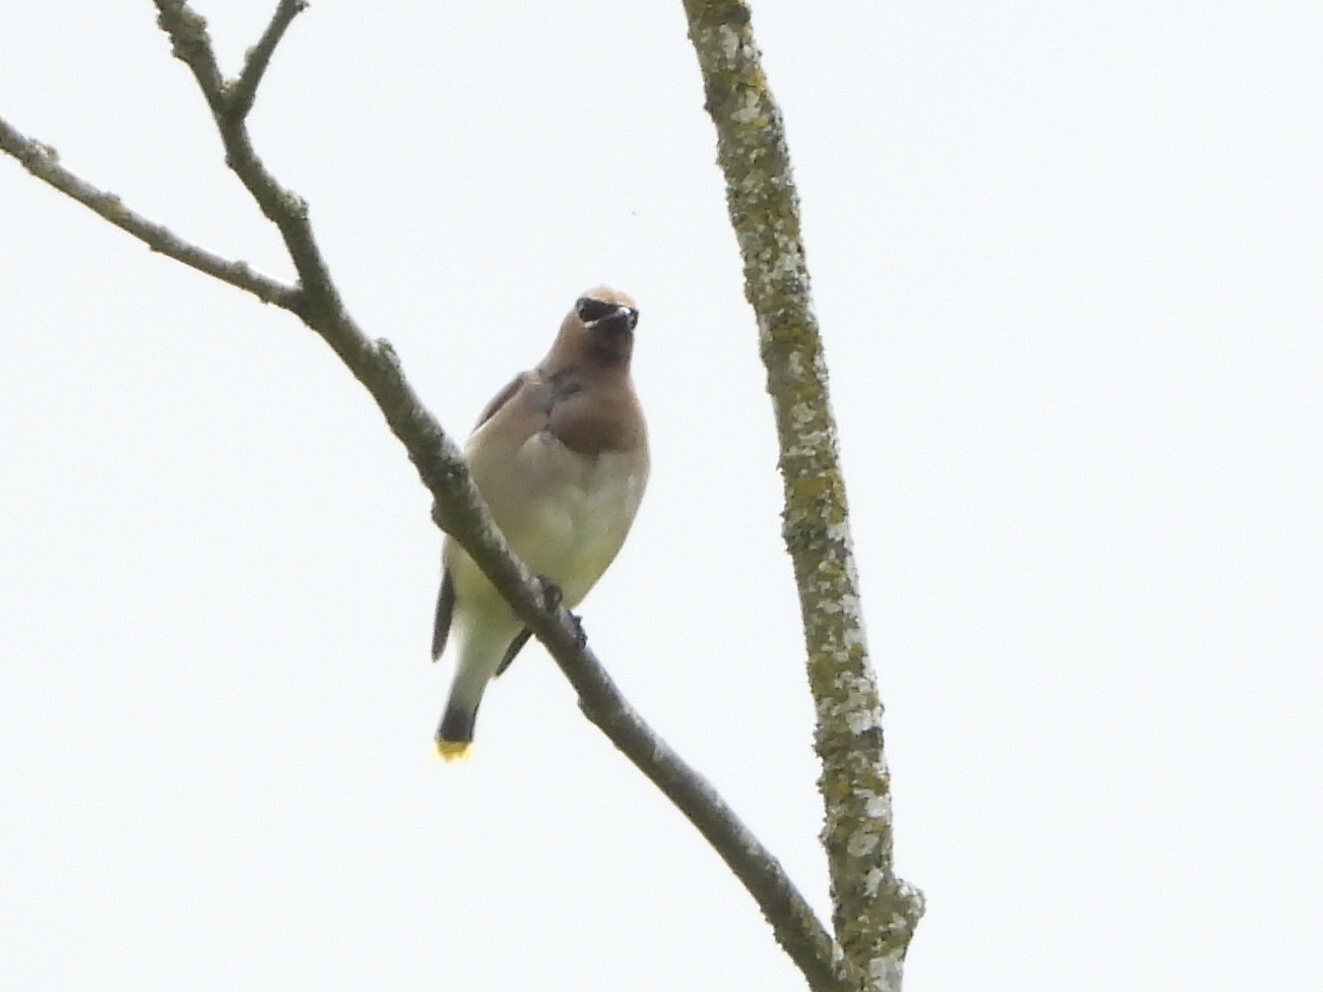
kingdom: Animalia
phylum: Chordata
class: Aves
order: Passeriformes
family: Bombycillidae
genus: Bombycilla
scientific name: Bombycilla cedrorum
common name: Cedar waxwing
